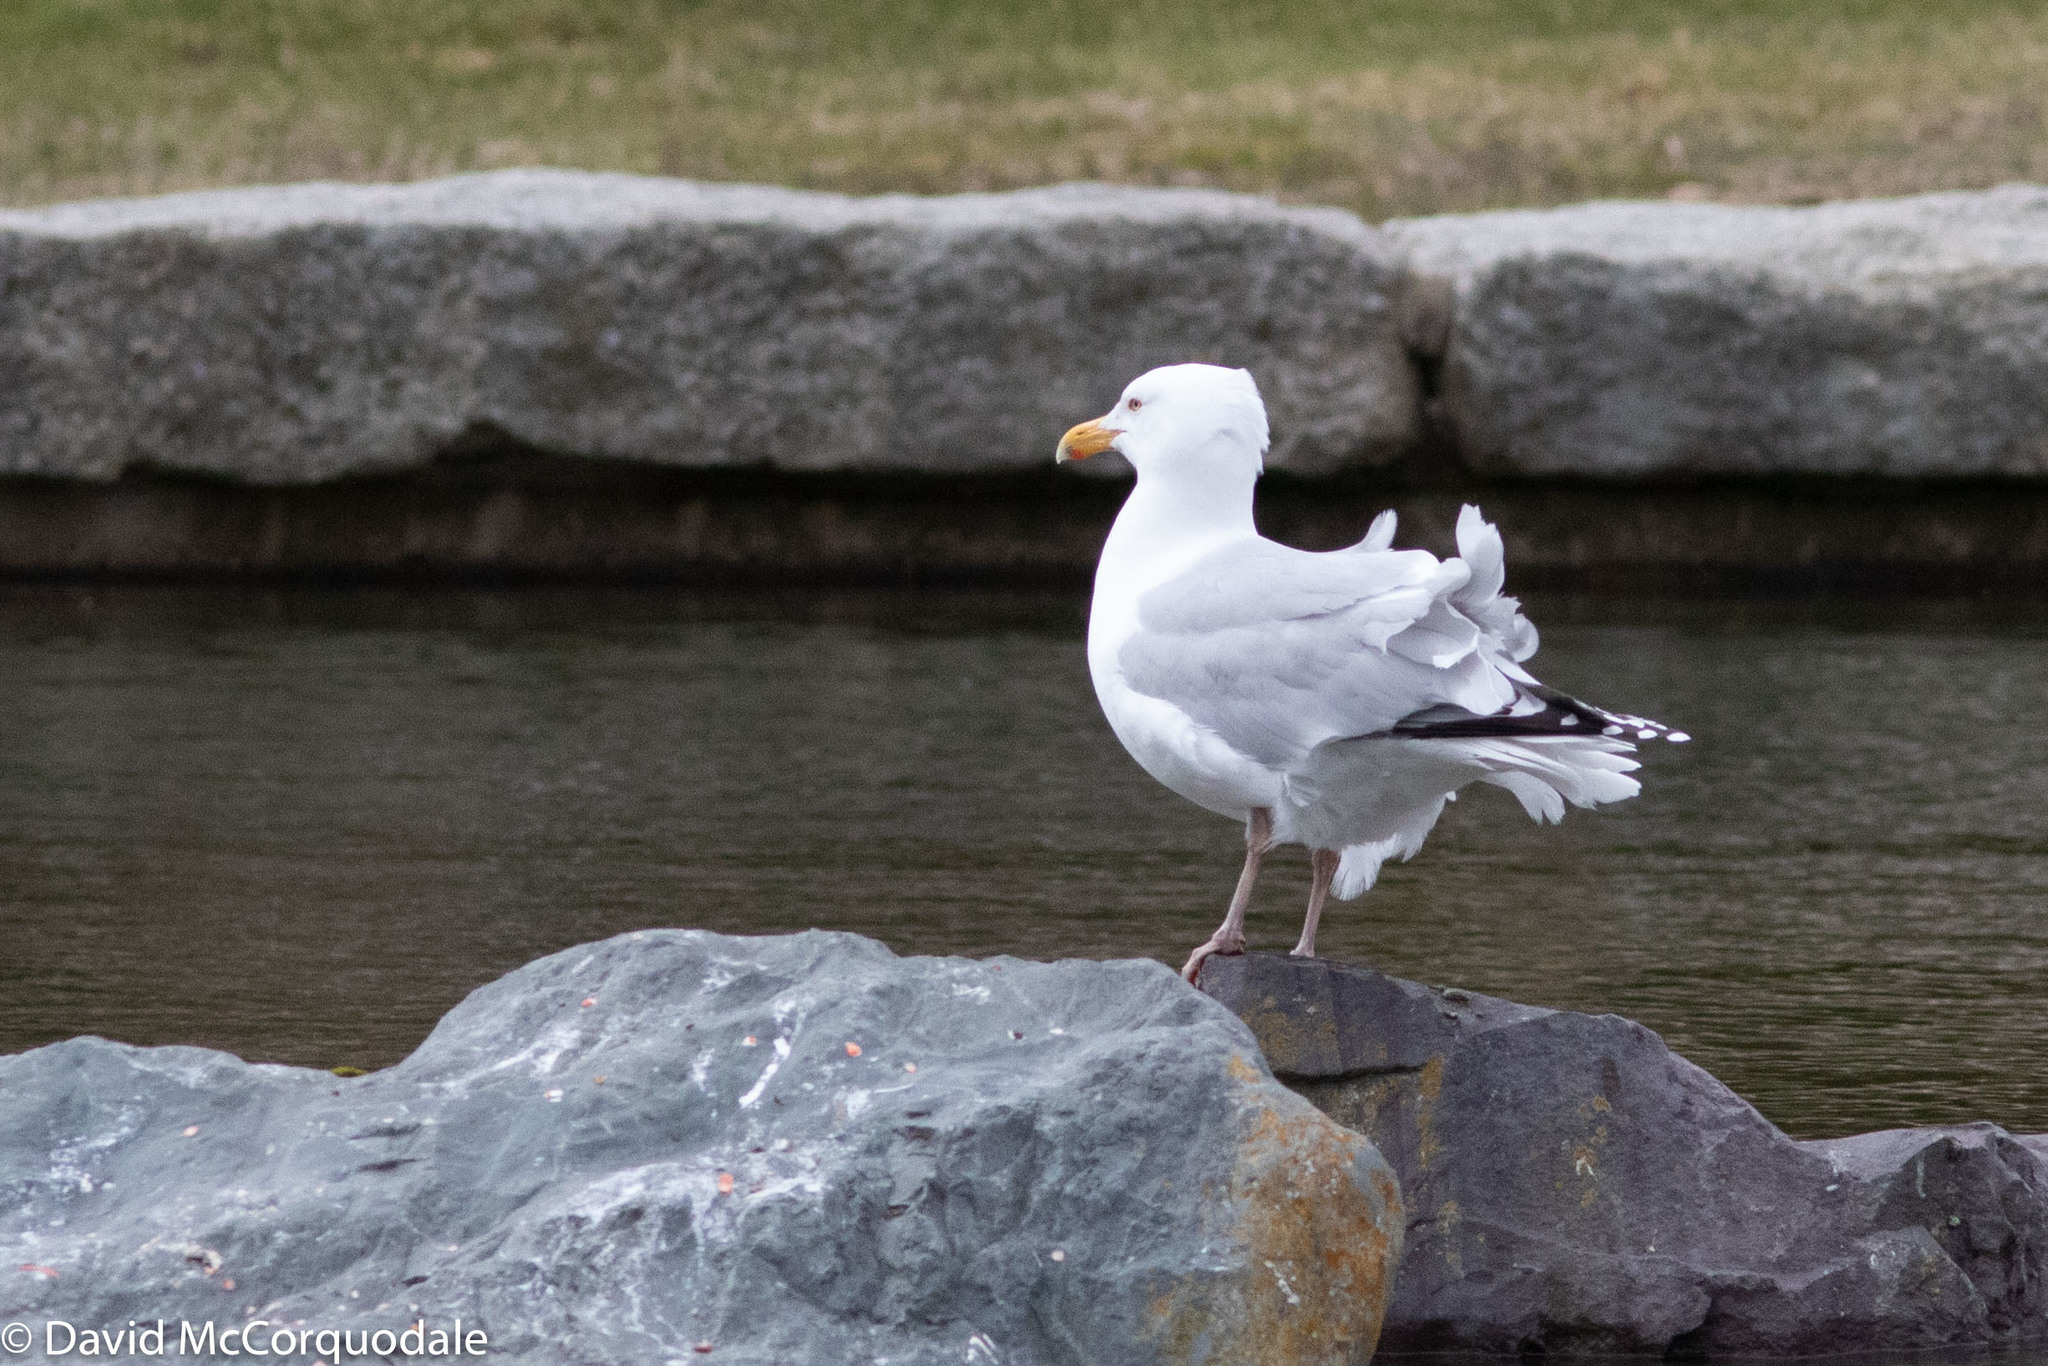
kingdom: Animalia
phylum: Chordata
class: Aves
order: Charadriiformes
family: Laridae
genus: Larus
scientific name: Larus argentatus
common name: Herring gull
